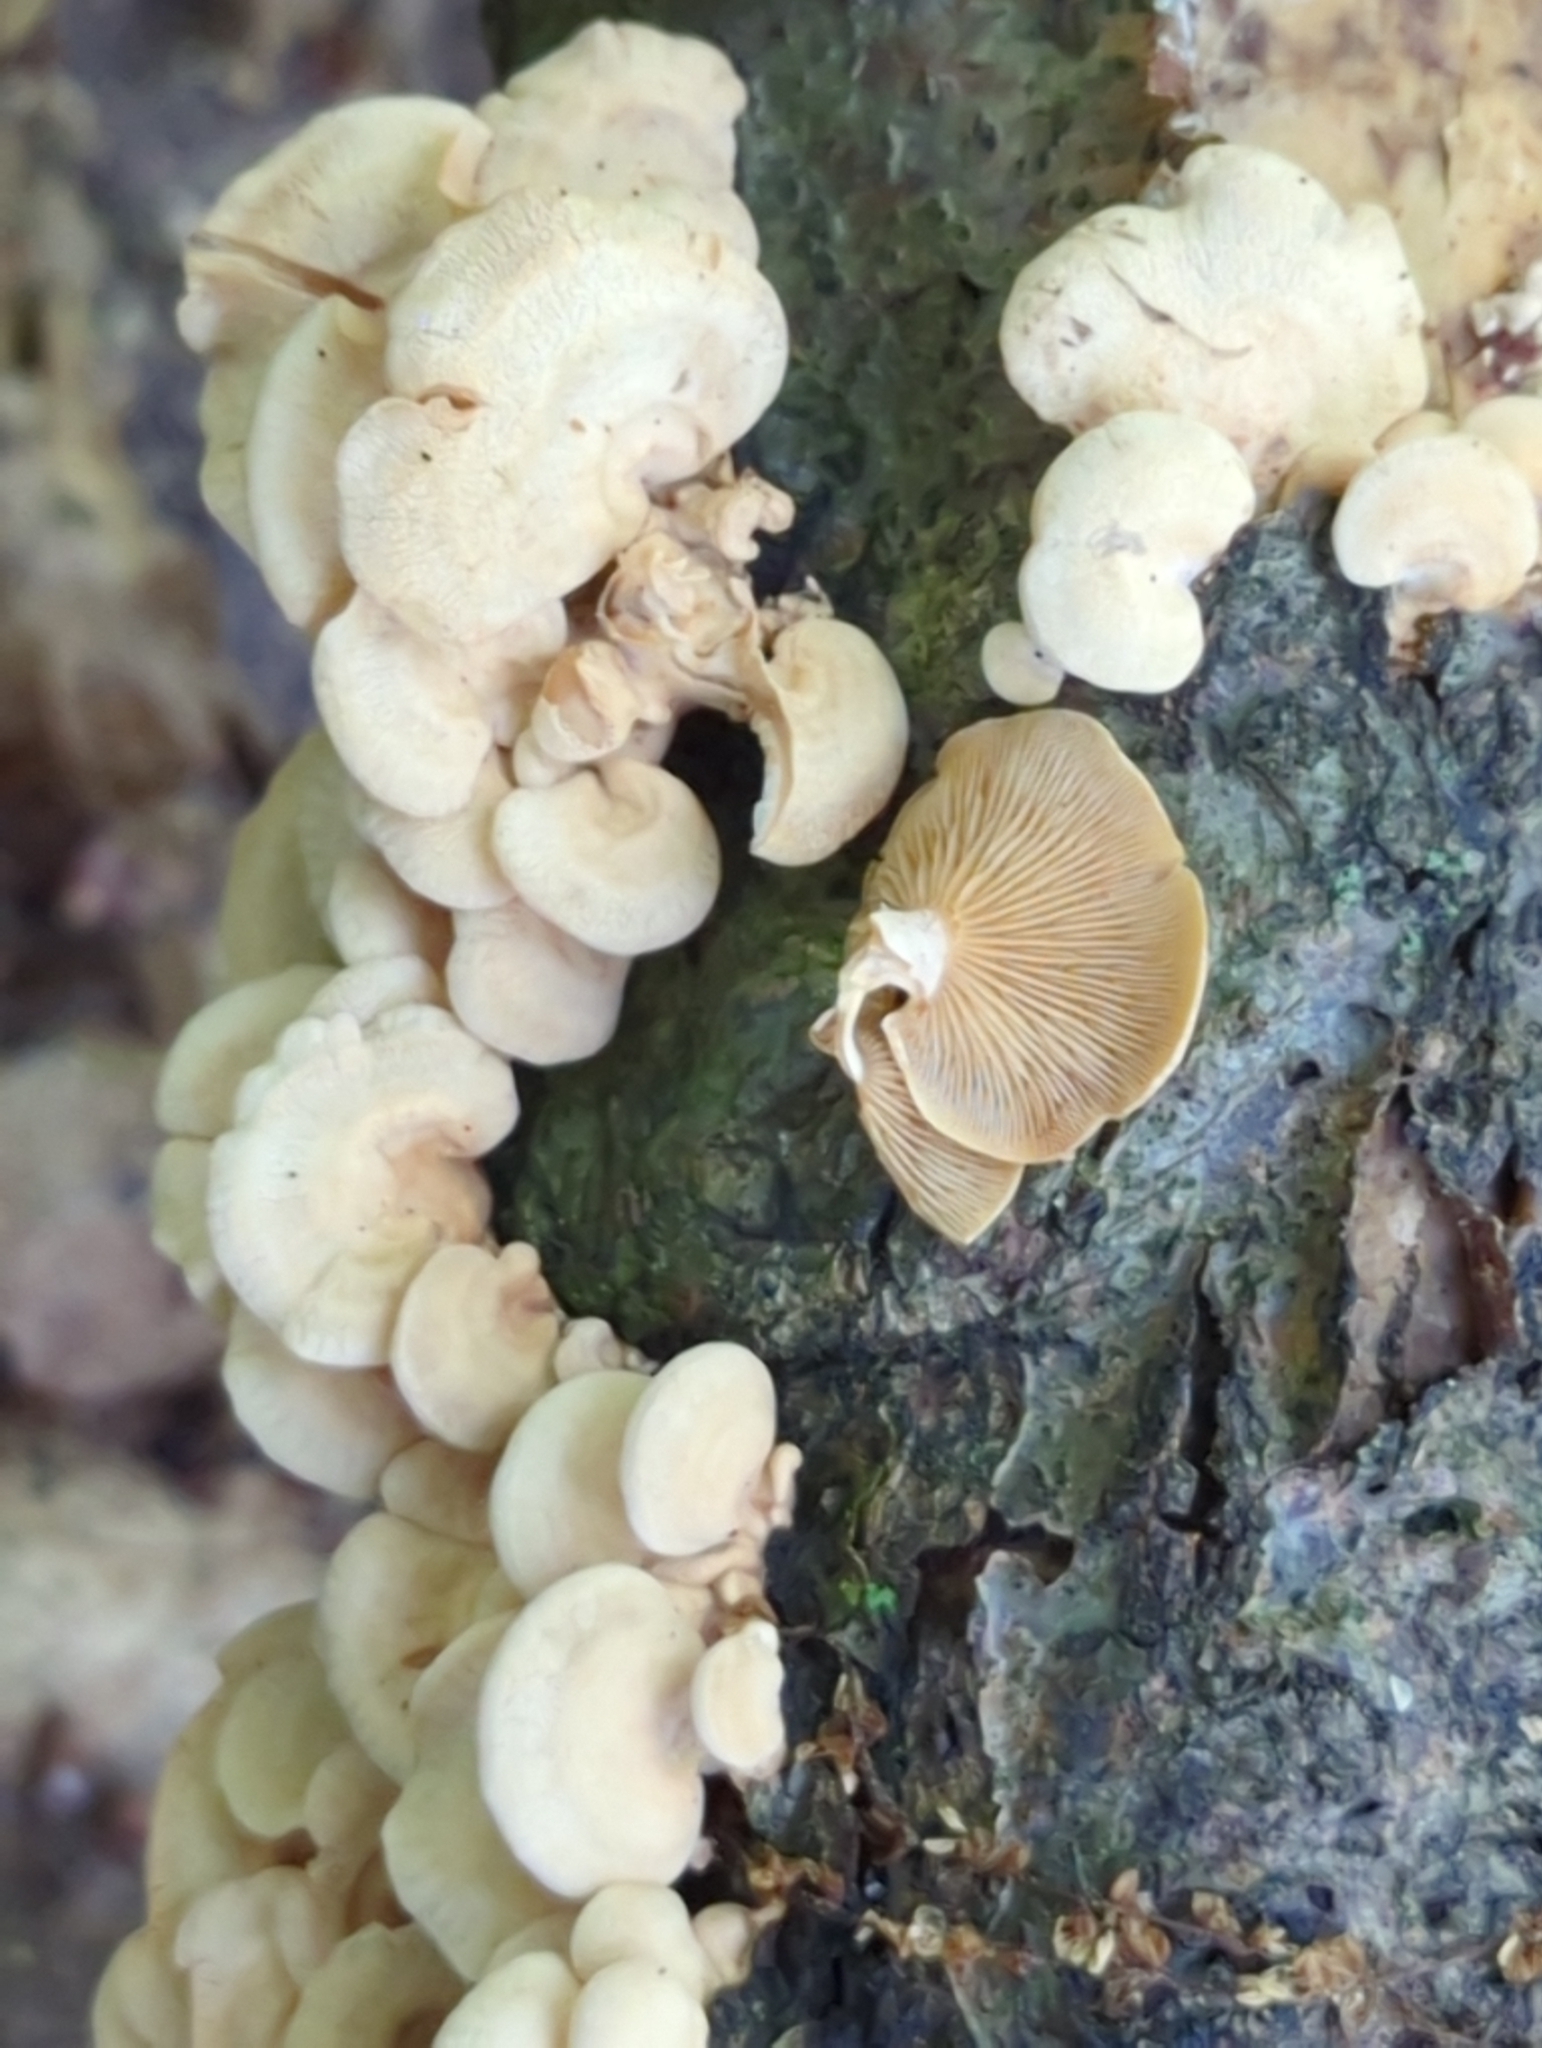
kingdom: Fungi
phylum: Basidiomycota
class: Agaricomycetes
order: Agaricales
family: Mycenaceae
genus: Panellus
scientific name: Panellus stipticus
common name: Bitter oysterling
